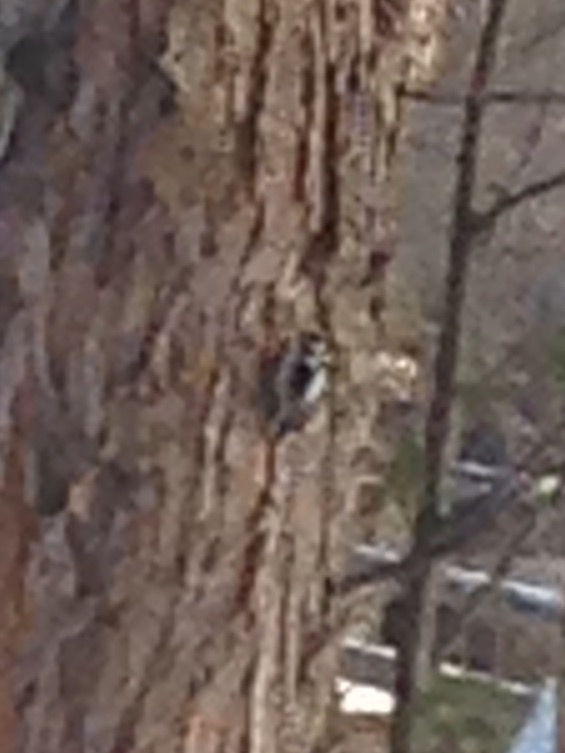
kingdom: Animalia
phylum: Chordata
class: Aves
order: Piciformes
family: Picidae
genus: Dryobates
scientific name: Dryobates
